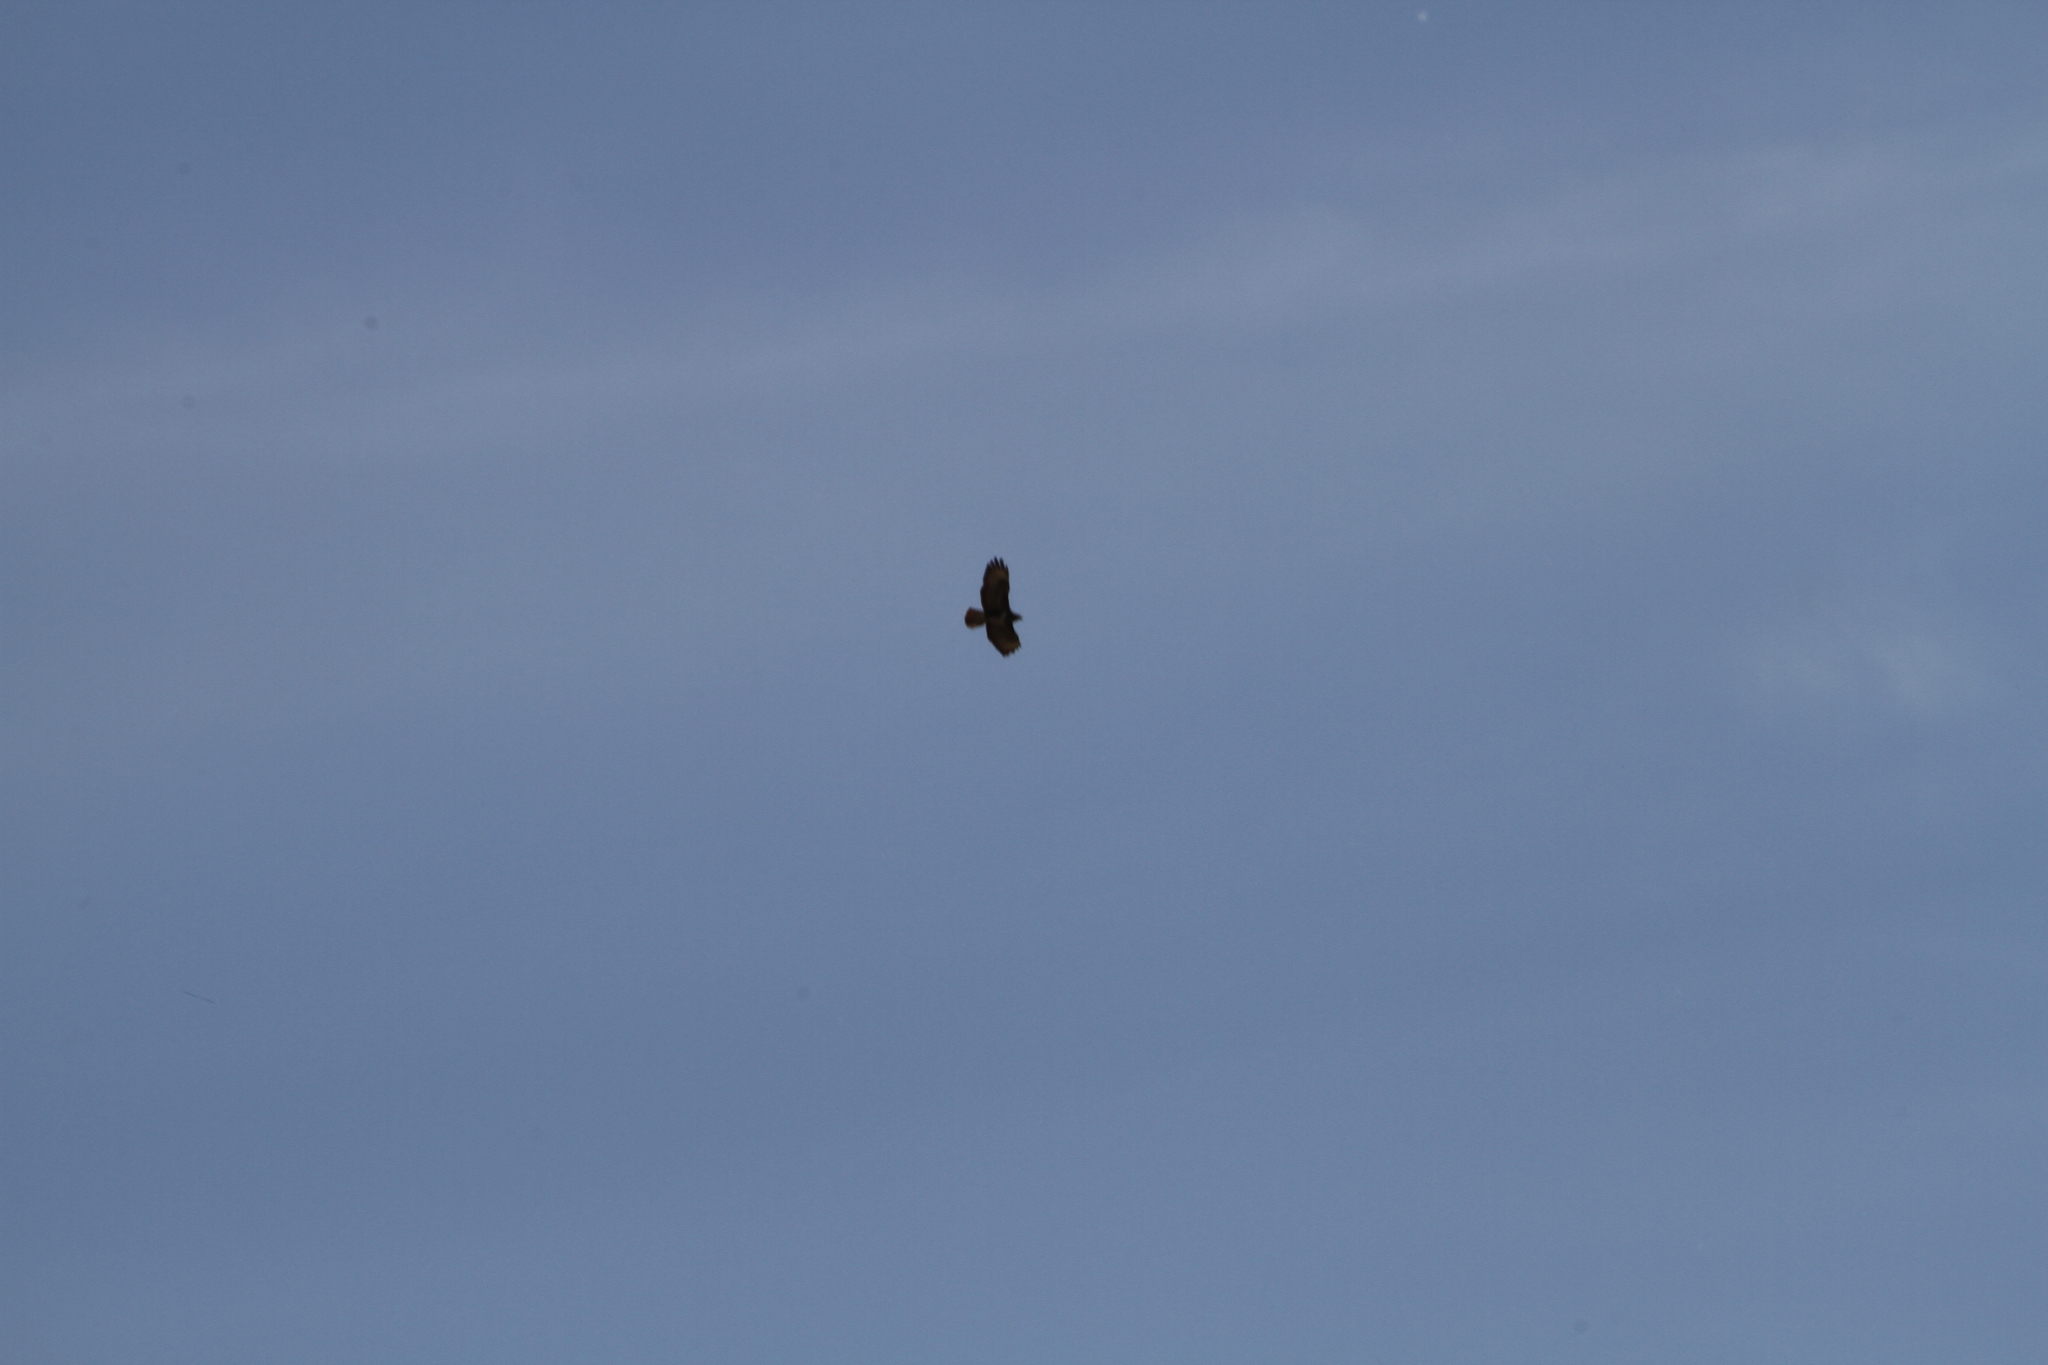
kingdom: Animalia
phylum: Chordata
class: Aves
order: Accipitriformes
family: Accipitridae
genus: Buteo
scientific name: Buteo buteo
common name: Common buzzard
